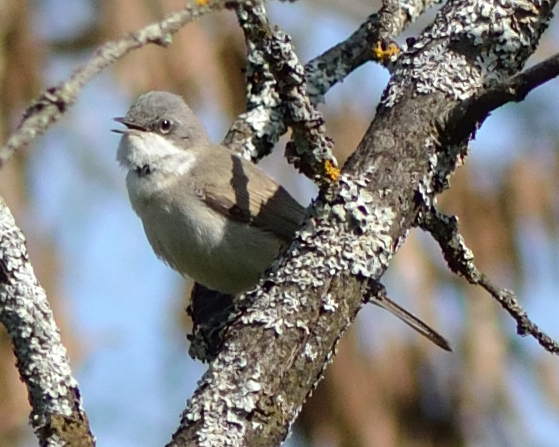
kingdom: Animalia
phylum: Chordata
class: Aves
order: Passeriformes
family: Sylviidae
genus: Sylvia
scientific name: Sylvia curruca
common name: Lesser whitethroat
